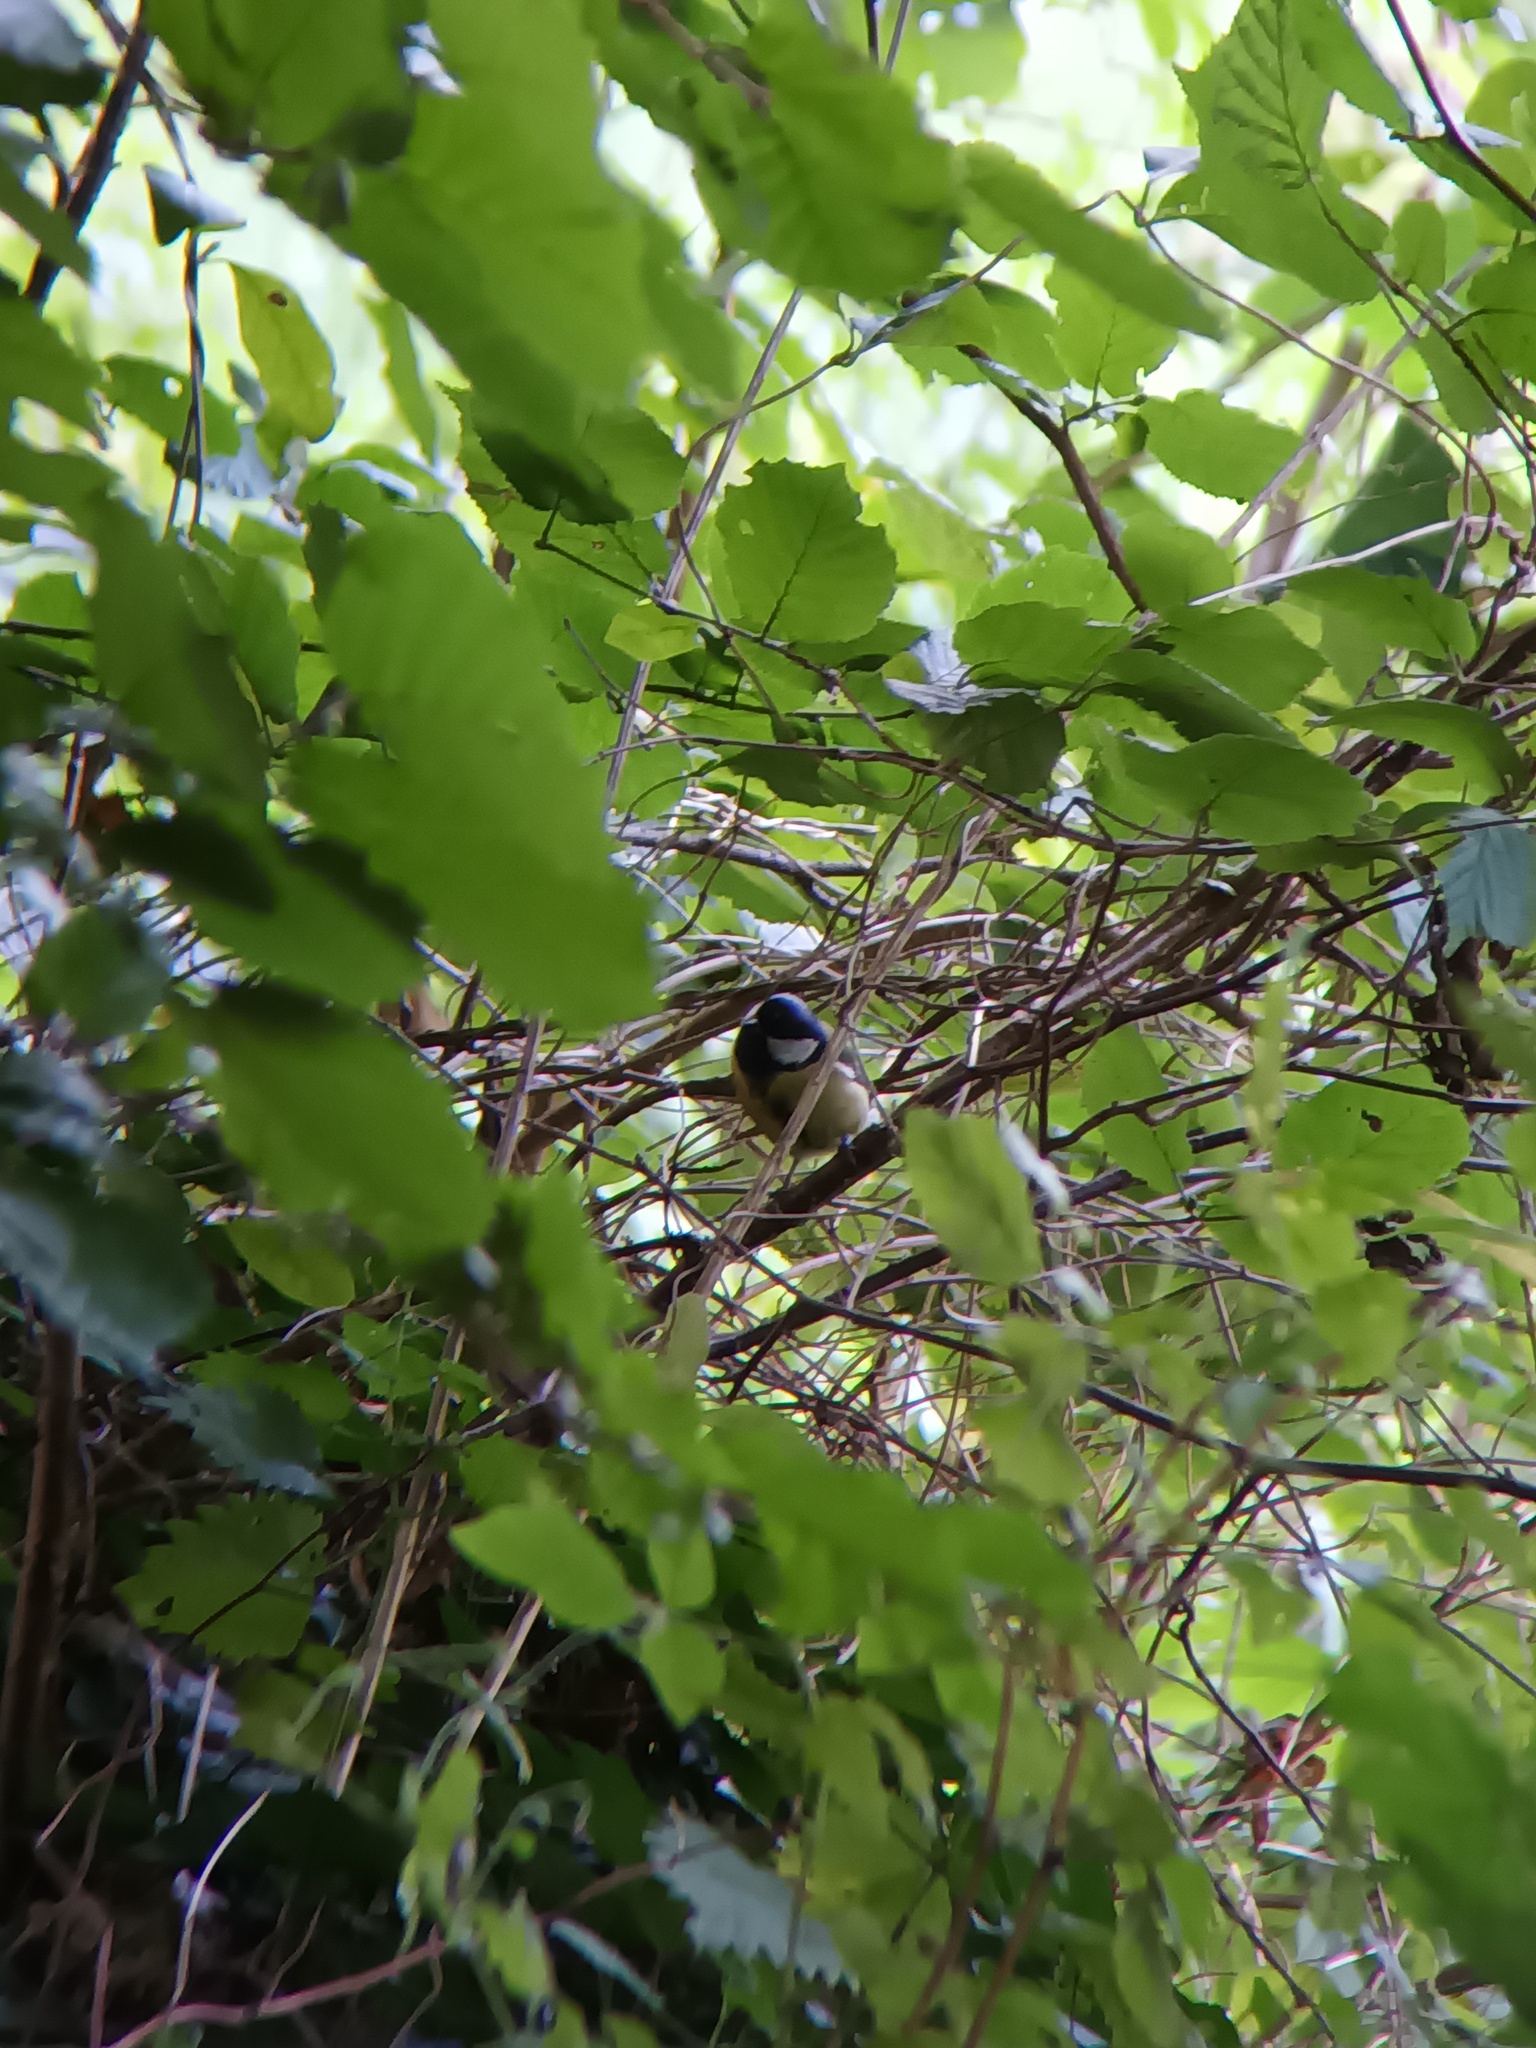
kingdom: Animalia
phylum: Chordata
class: Aves
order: Passeriformes
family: Paridae
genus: Parus
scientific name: Parus major
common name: Great tit
